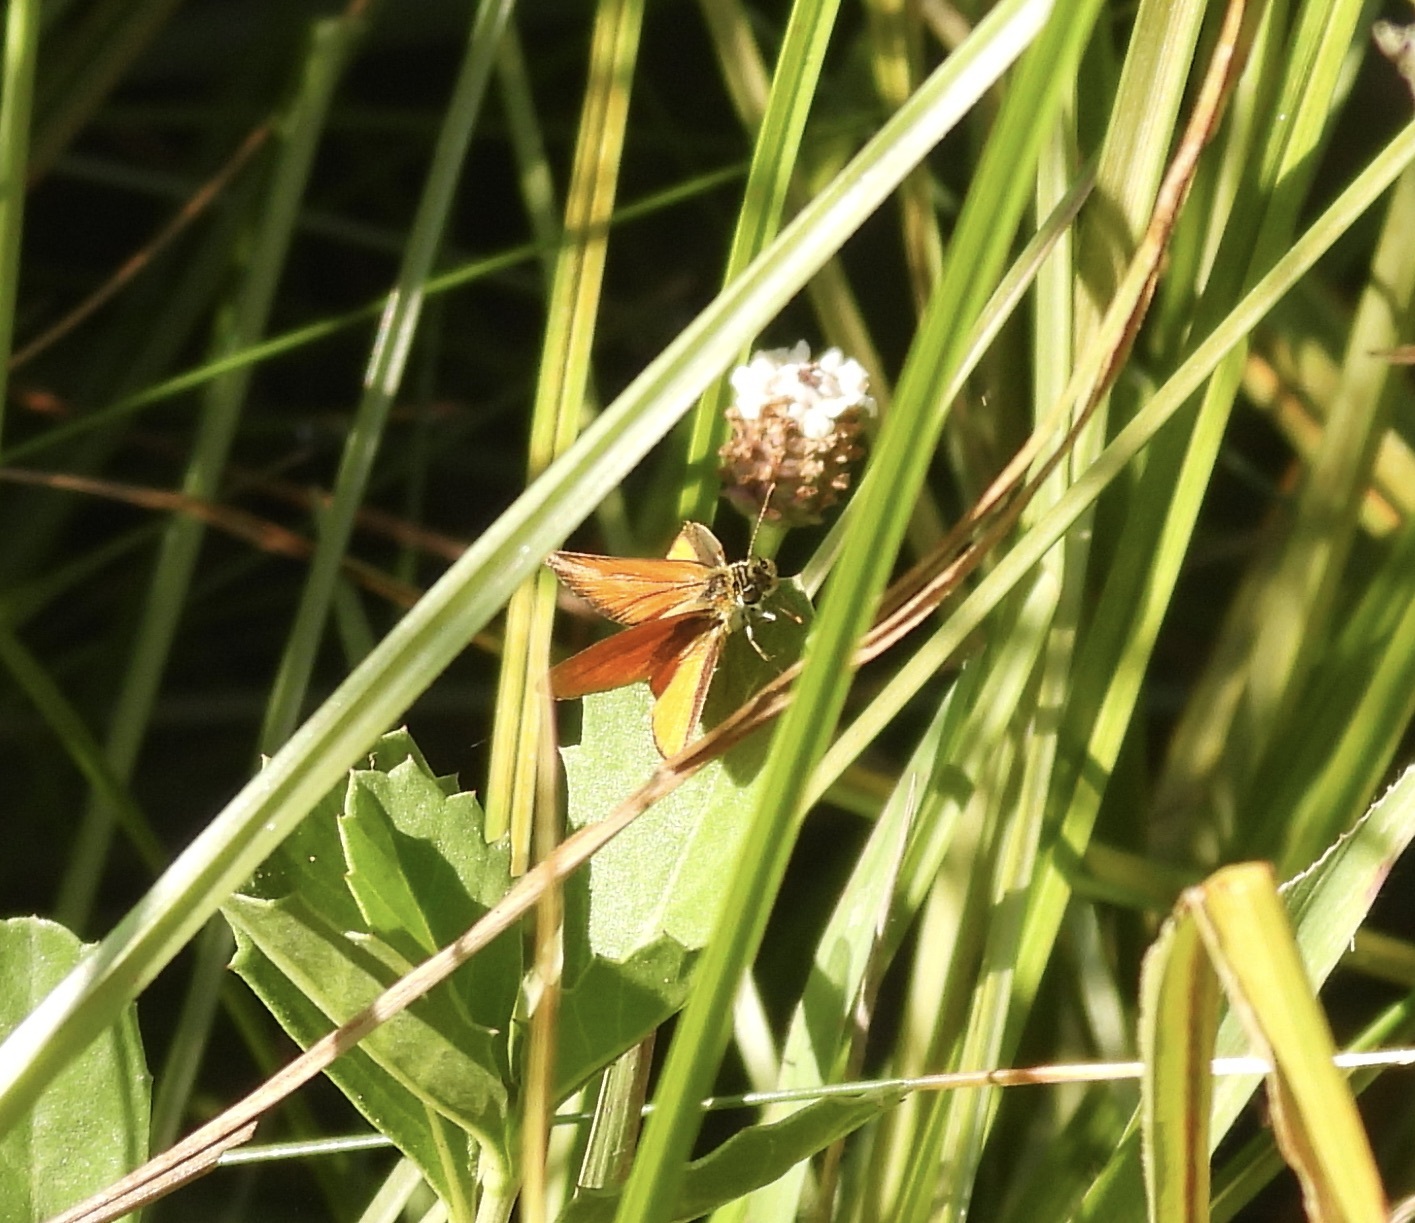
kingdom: Animalia
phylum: Arthropoda
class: Insecta
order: Lepidoptera
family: Hesperiidae
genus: Ancyloxypha
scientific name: Ancyloxypha arene
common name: Tropical least skipper
